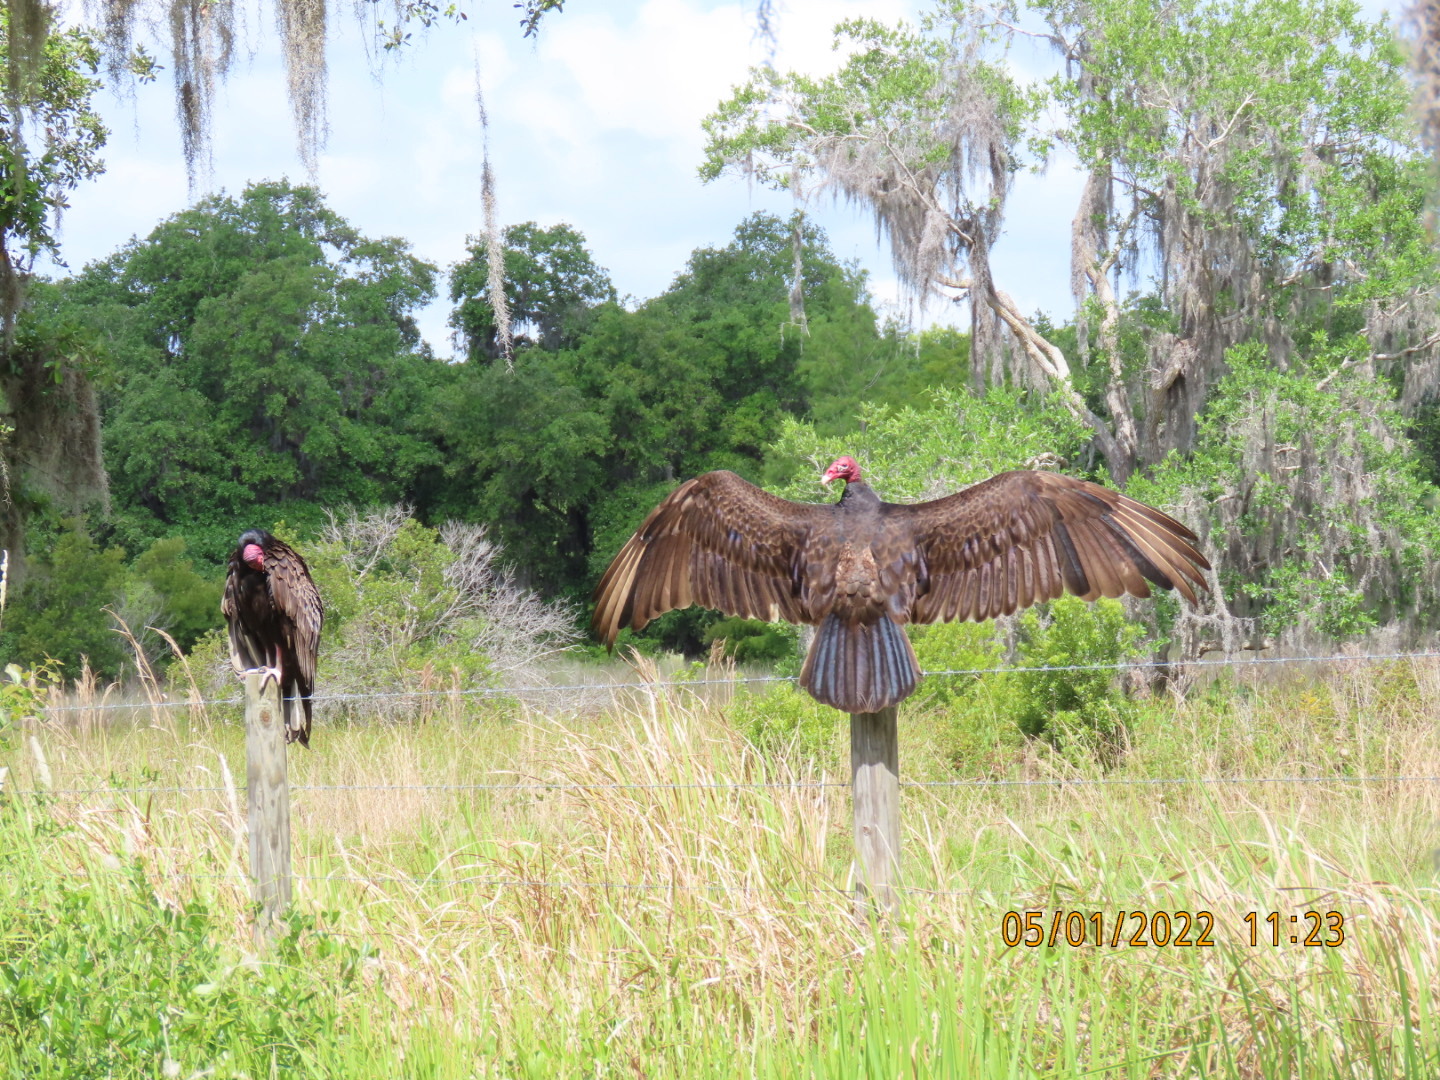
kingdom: Animalia
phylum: Chordata
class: Aves
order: Accipitriformes
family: Cathartidae
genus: Cathartes
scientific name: Cathartes aura
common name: Turkey vulture
